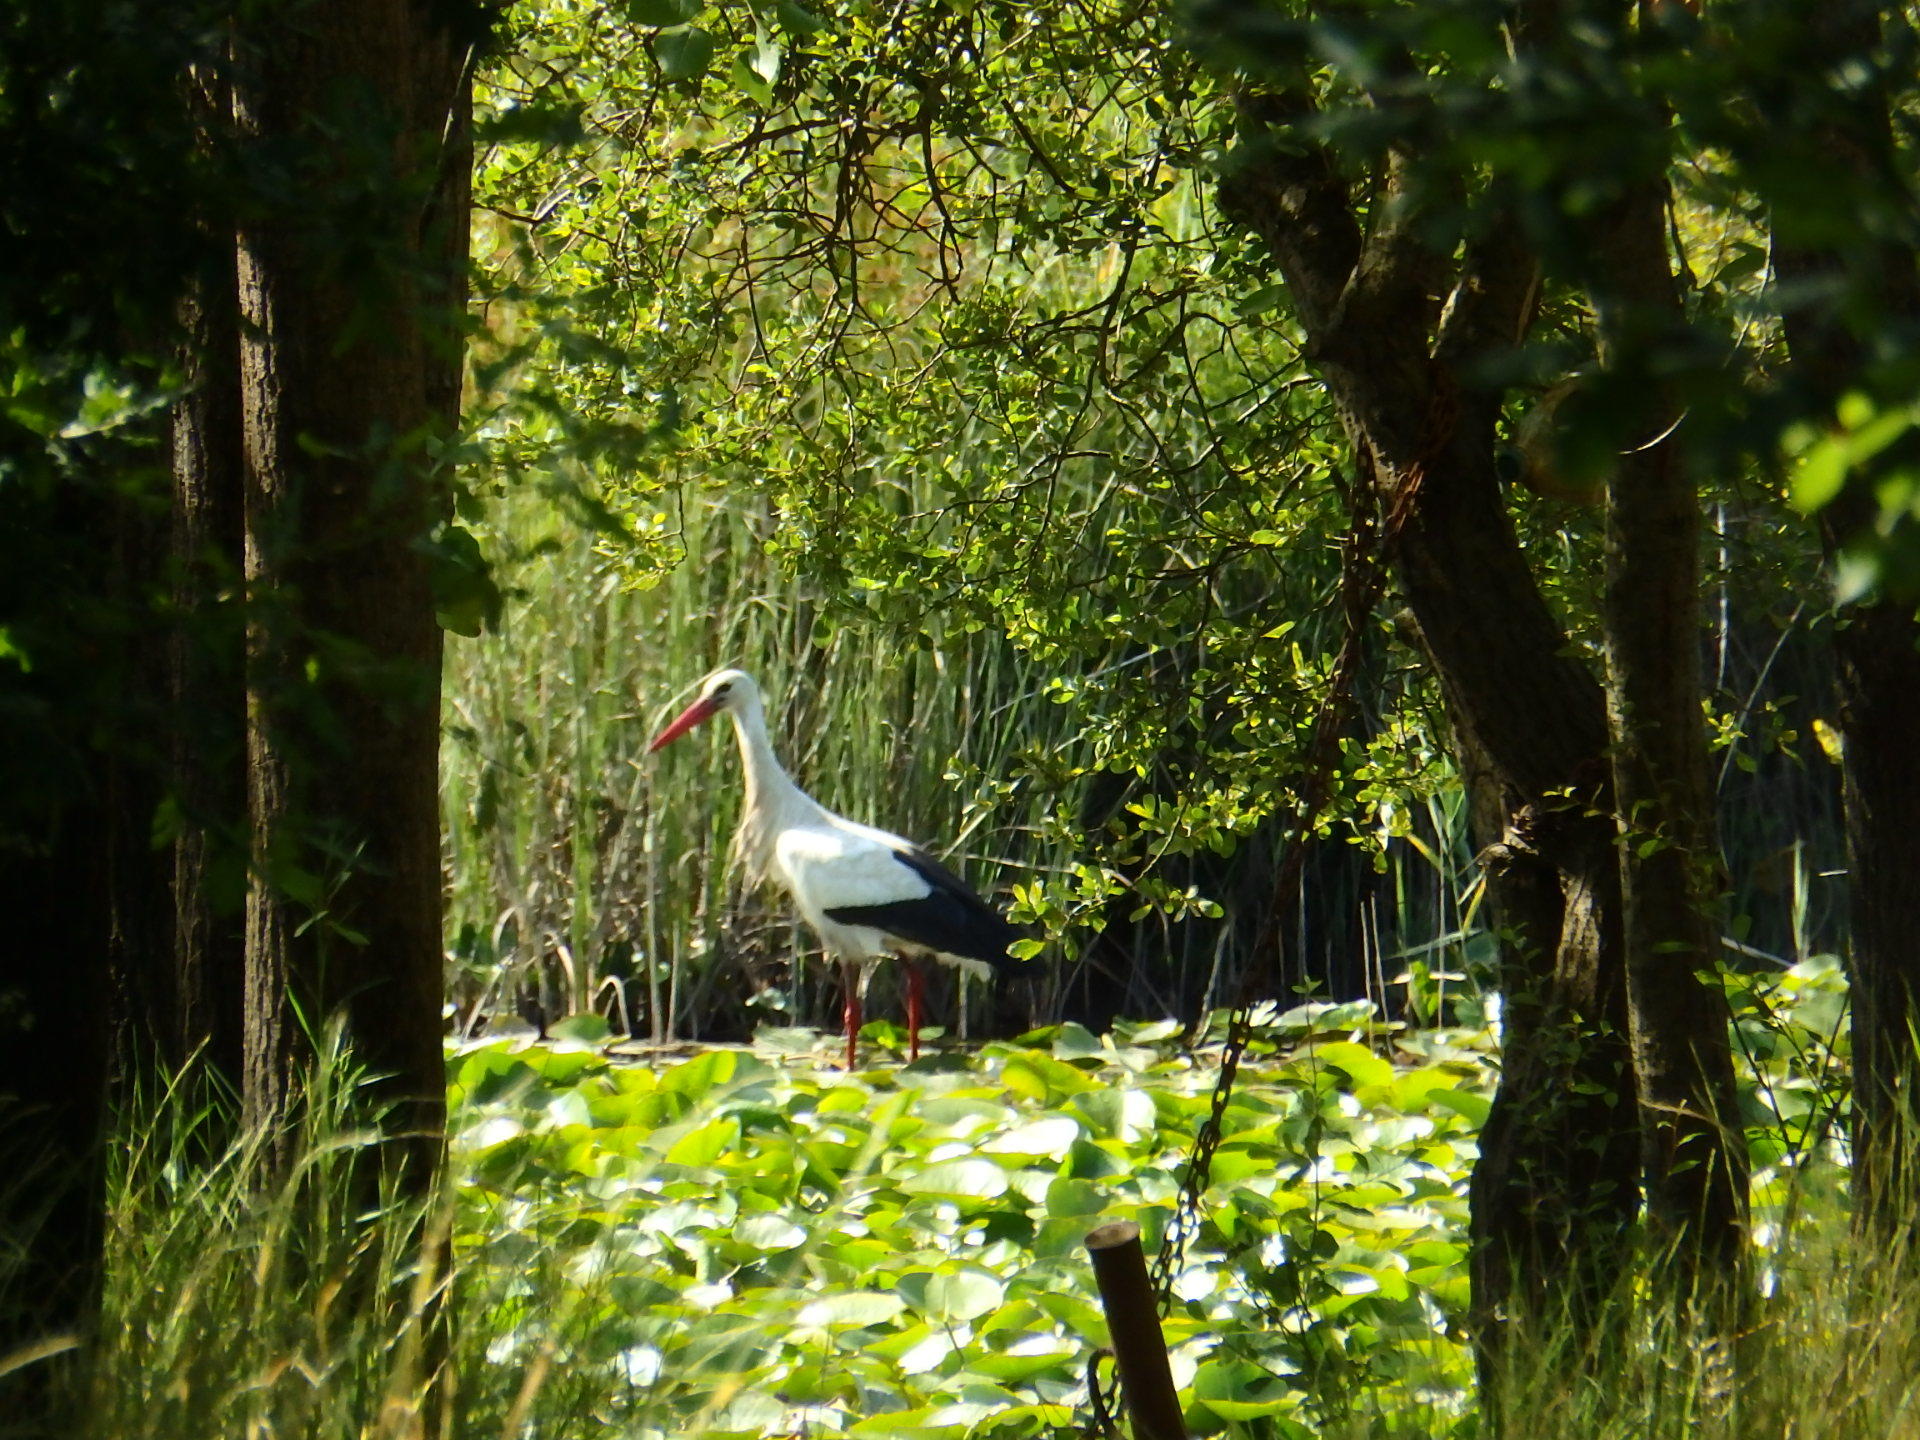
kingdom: Animalia
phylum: Chordata
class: Aves
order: Ciconiiformes
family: Ciconiidae
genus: Ciconia
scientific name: Ciconia ciconia
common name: White stork
